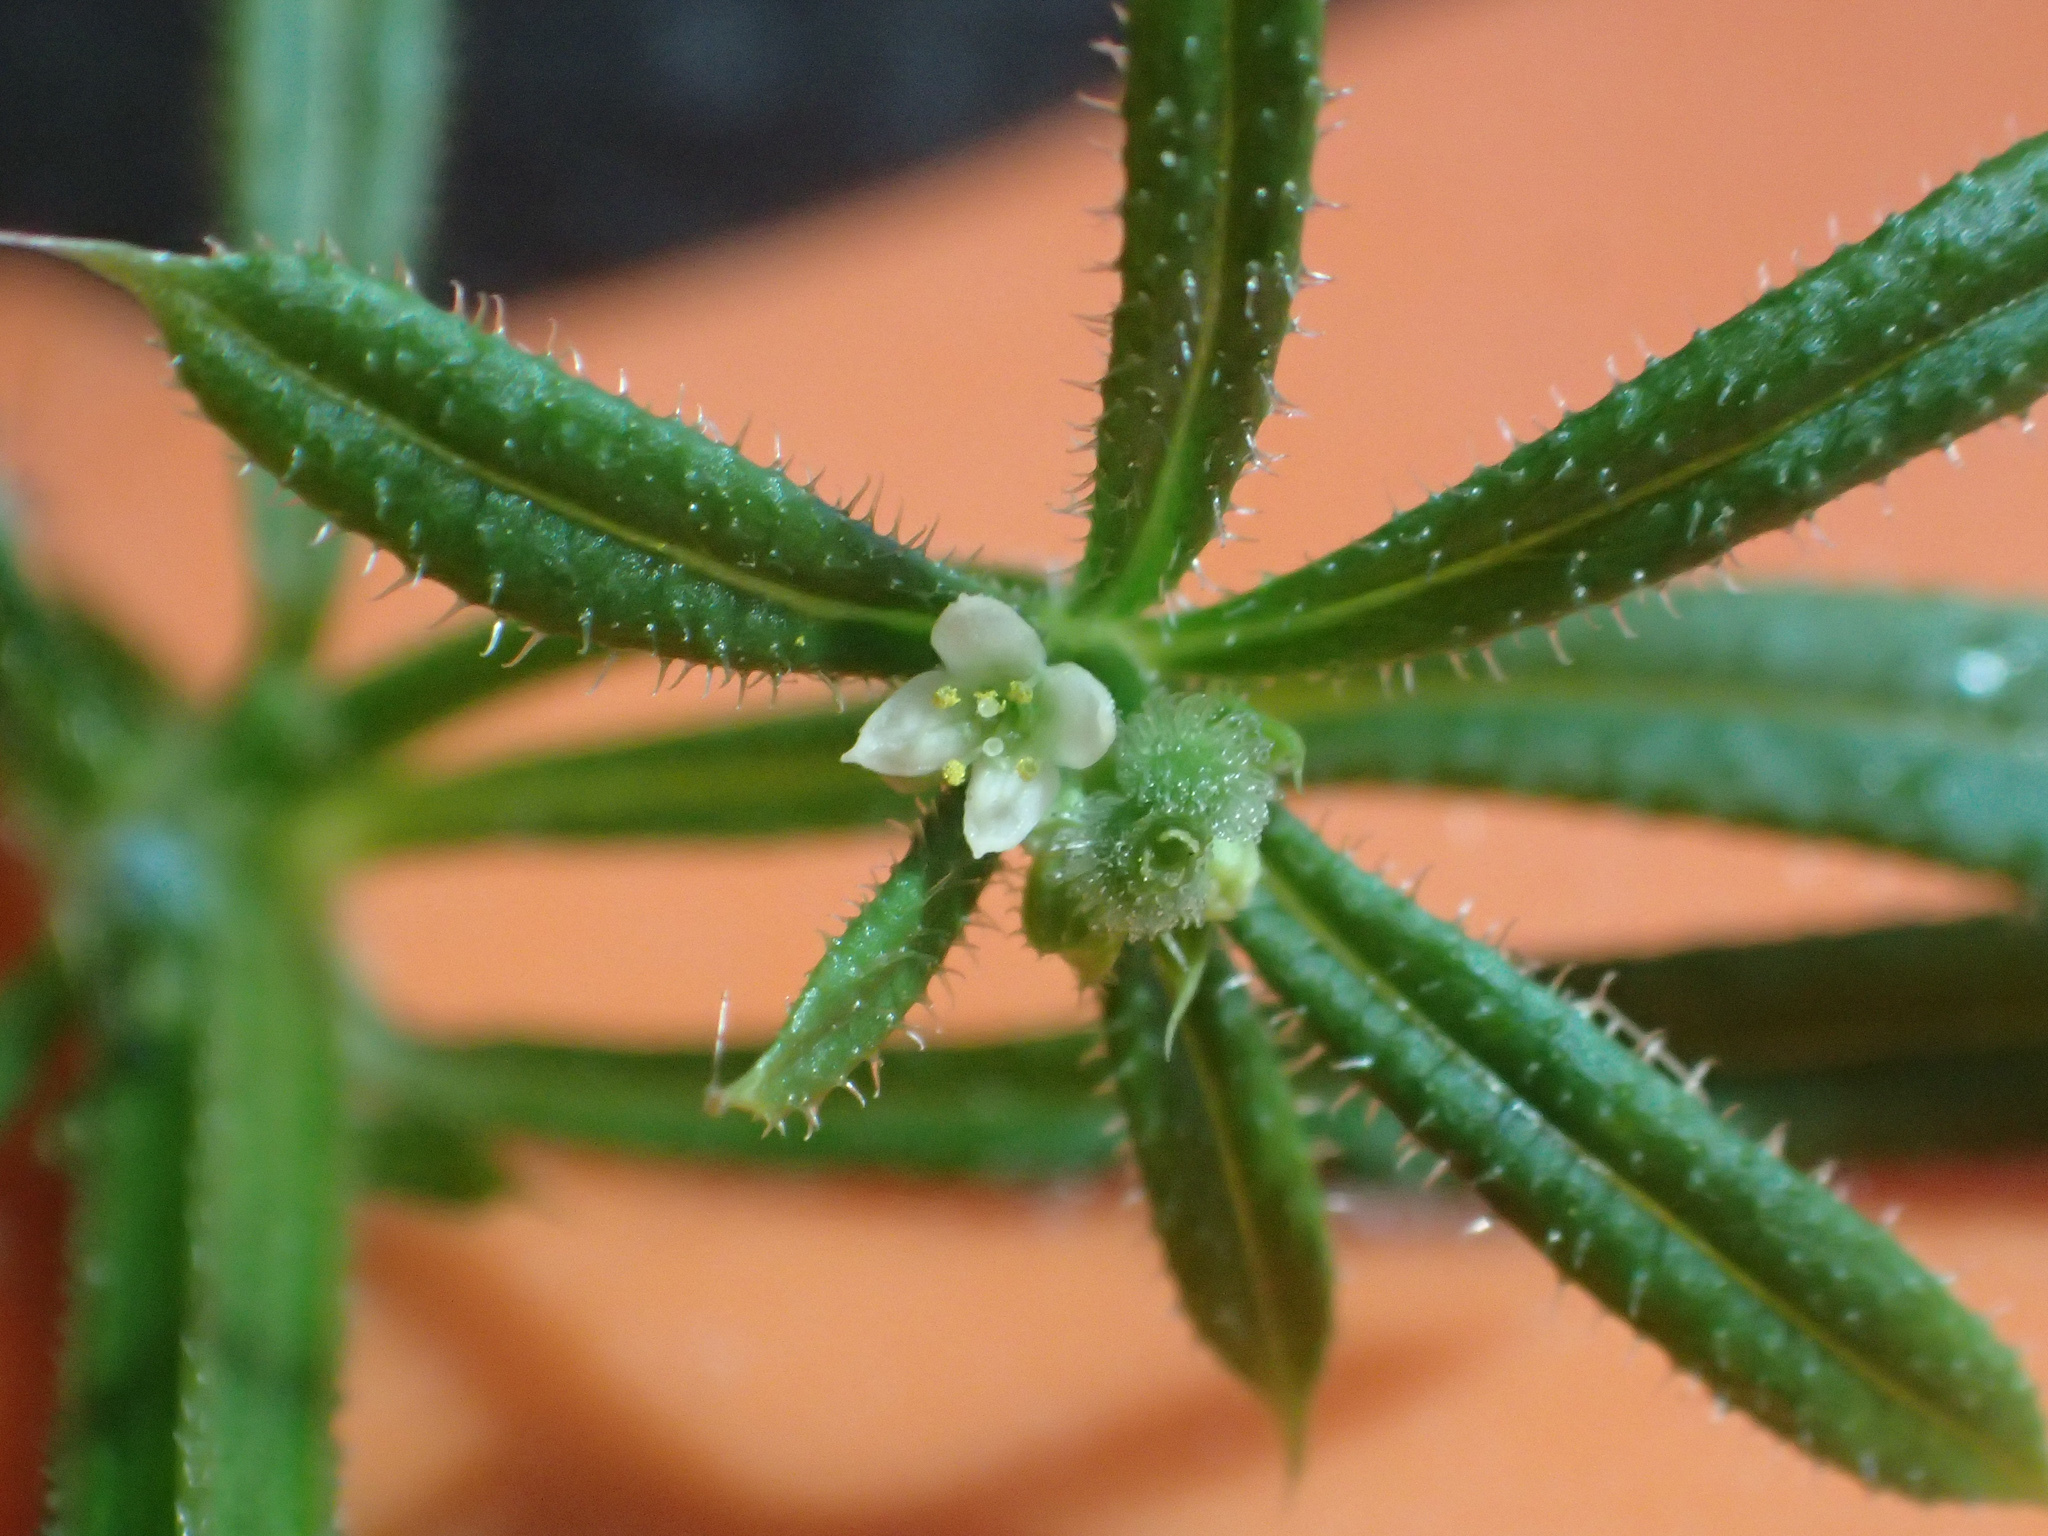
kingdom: Plantae
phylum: Tracheophyta
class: Magnoliopsida
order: Gentianales
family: Rubiaceae
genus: Galium
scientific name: Galium aparine
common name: Cleavers
